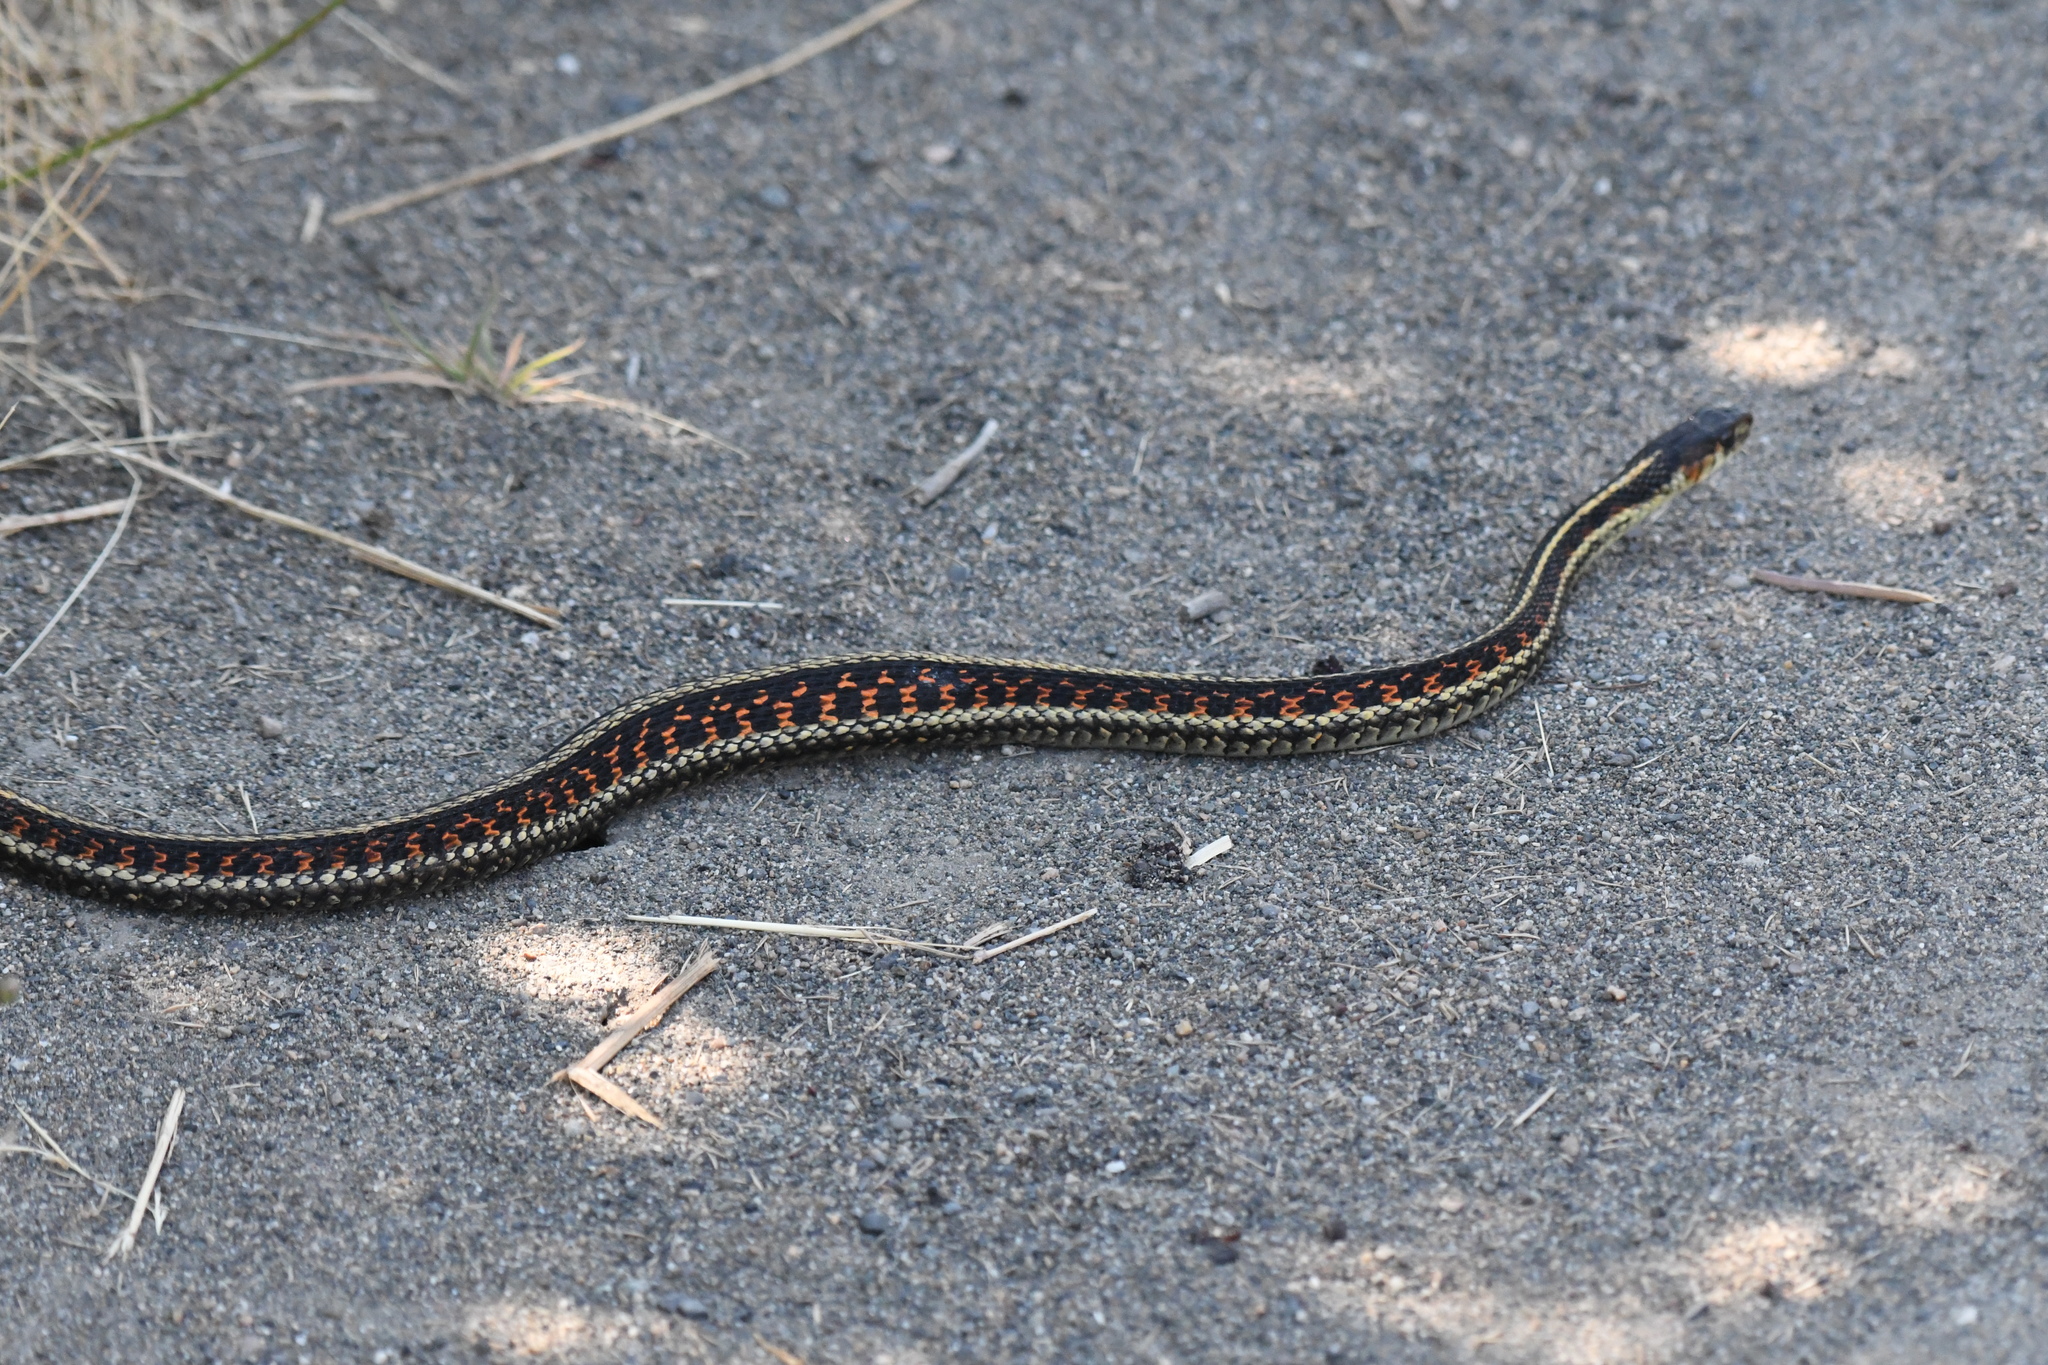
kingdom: Animalia
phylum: Chordata
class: Squamata
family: Colubridae
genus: Thamnophis
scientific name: Thamnophis sirtalis
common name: Common garter snake
